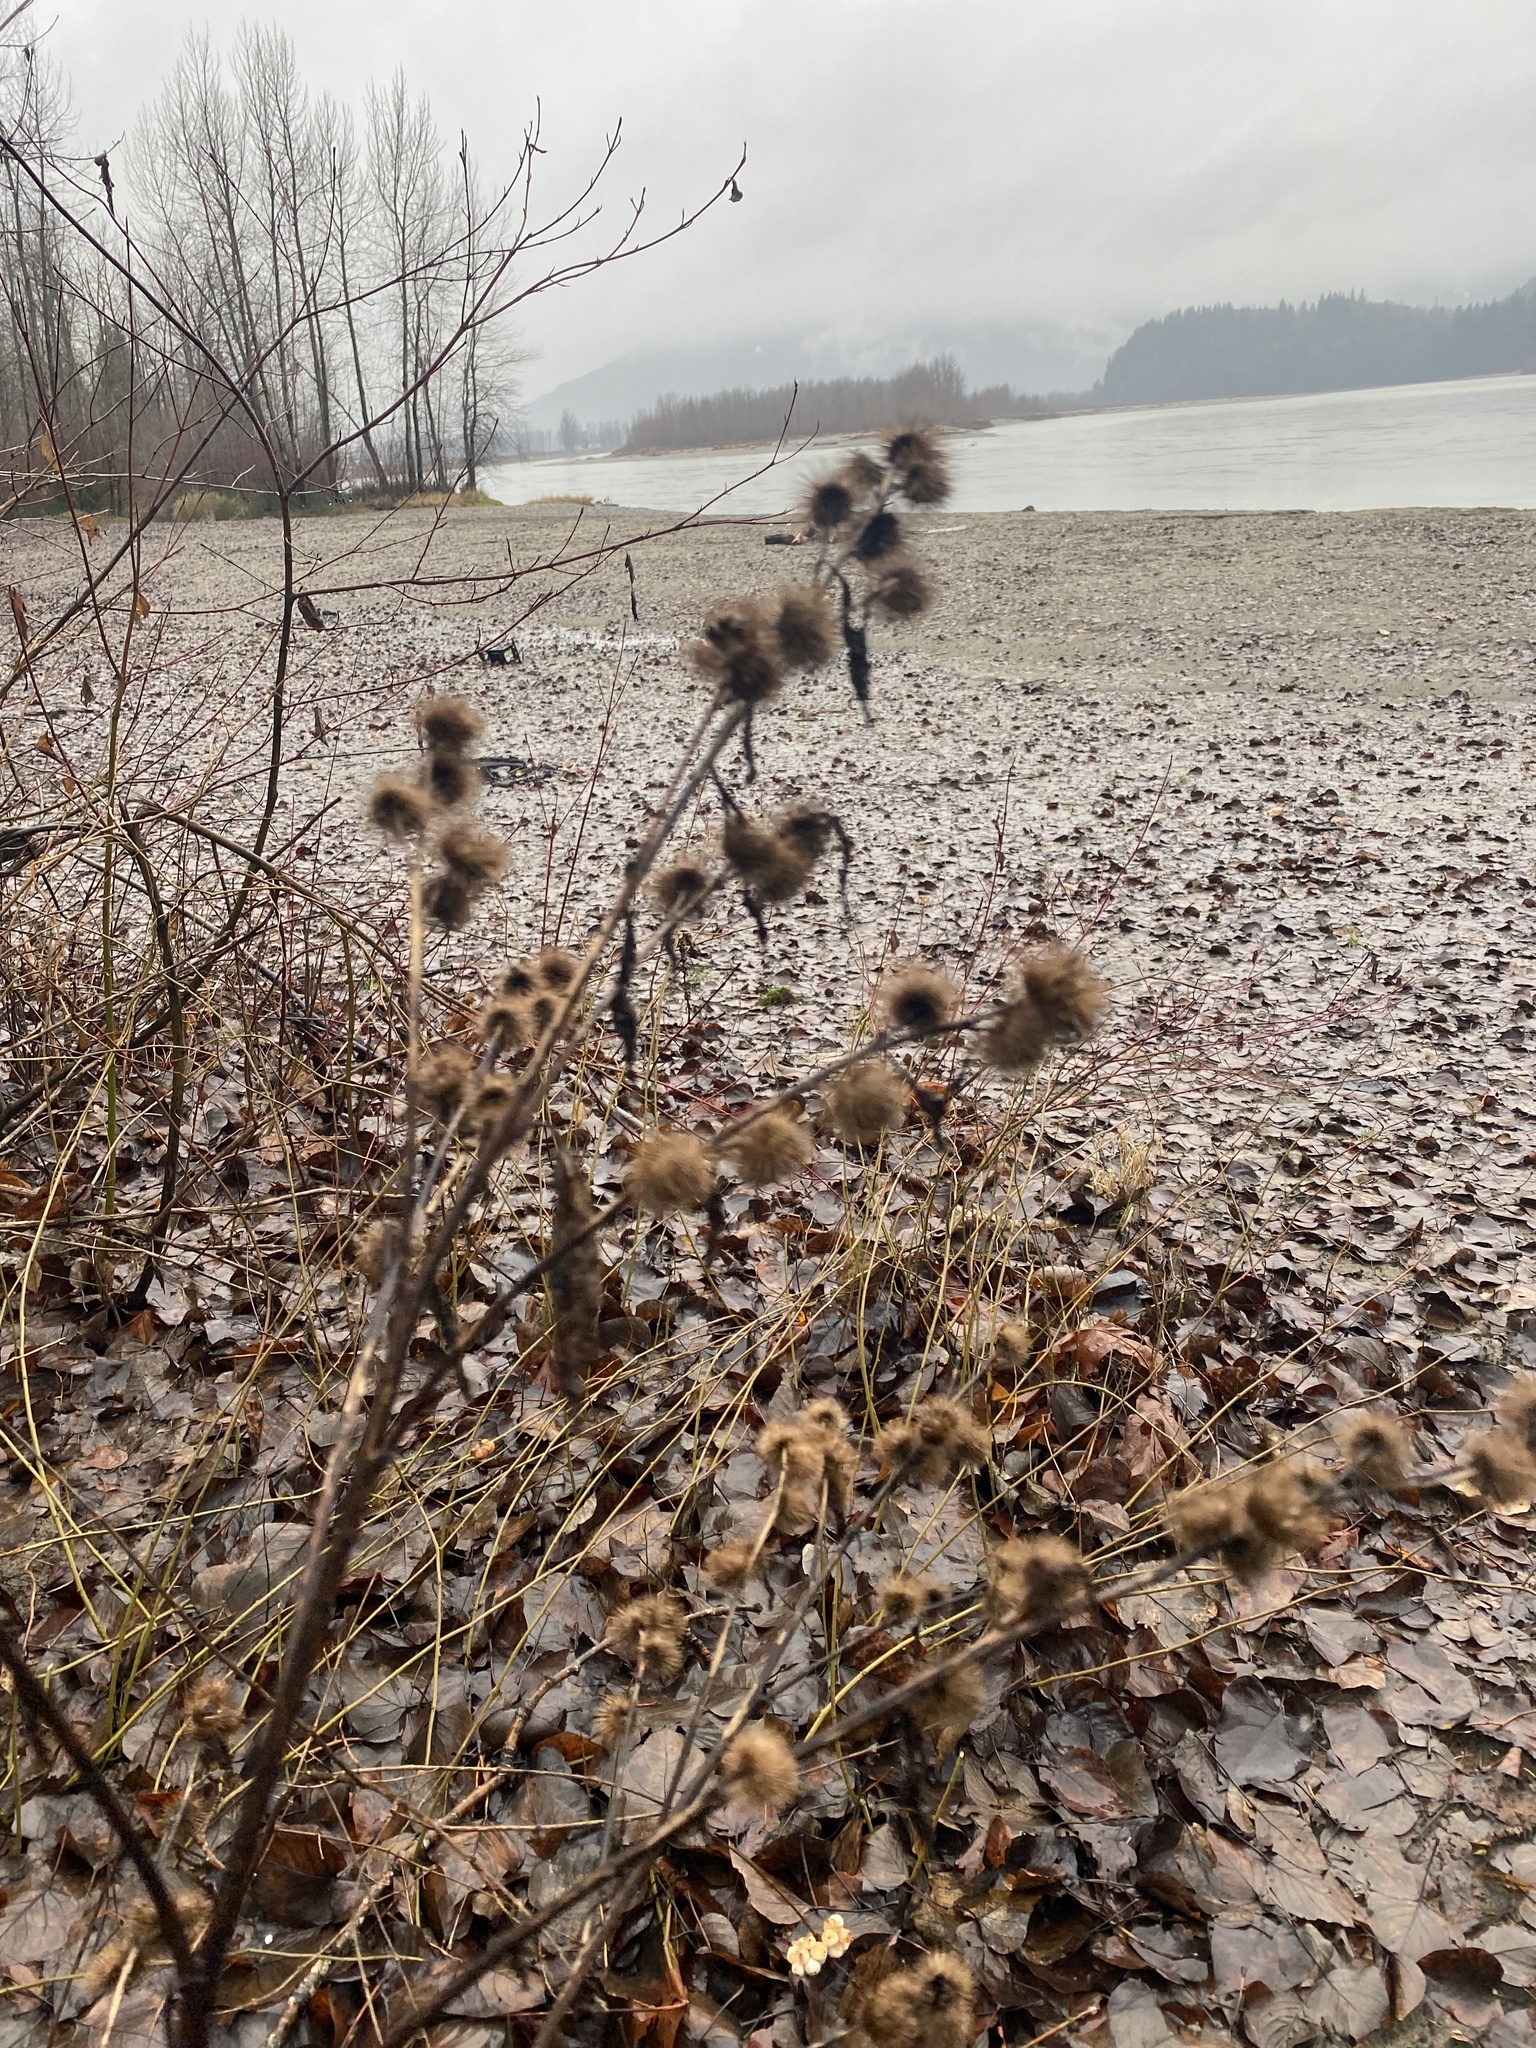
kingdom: Plantae
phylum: Tracheophyta
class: Magnoliopsida
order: Asterales
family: Asteraceae
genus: Arctium
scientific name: Arctium minus
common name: Lesser burdock
